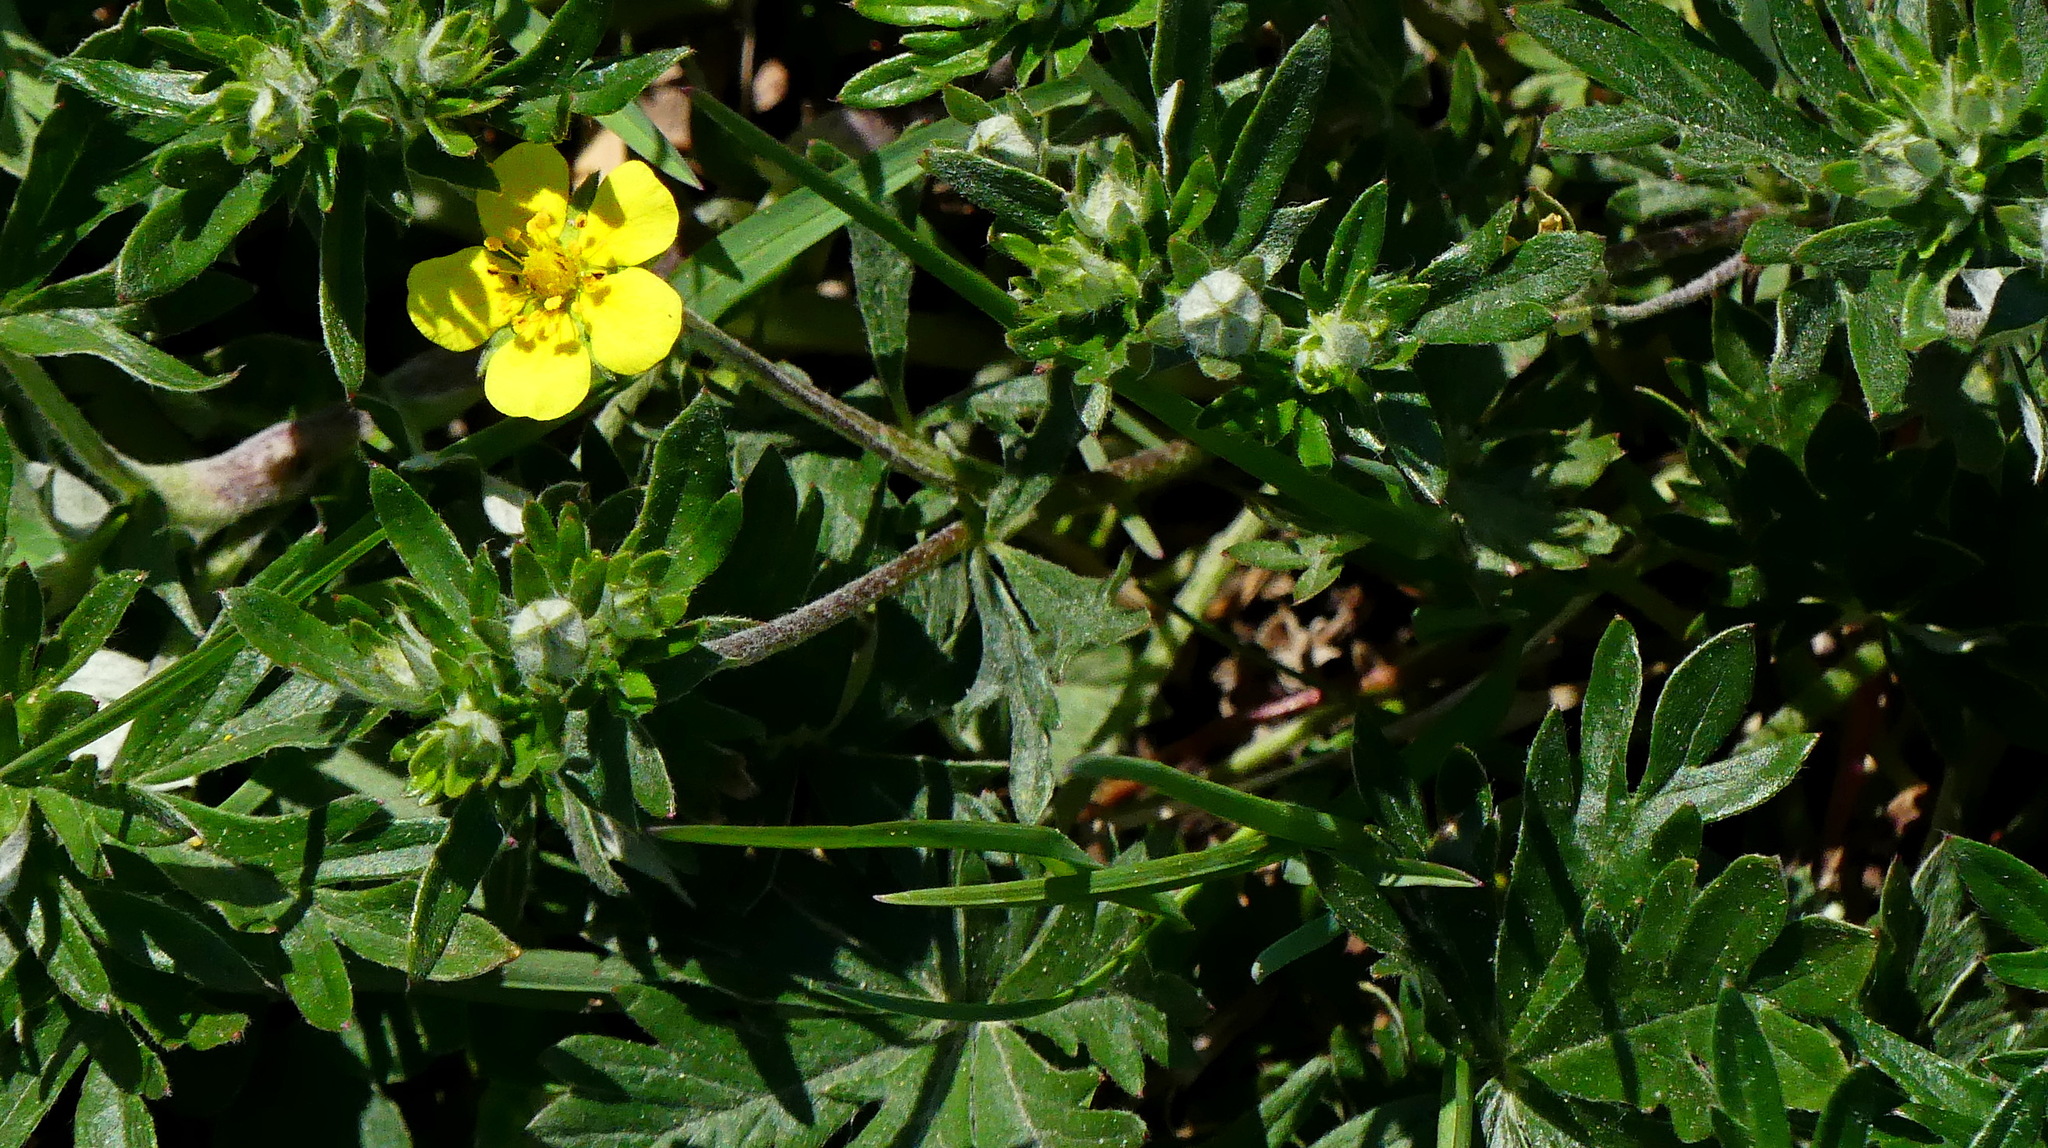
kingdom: Plantae
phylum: Tracheophyta
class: Magnoliopsida
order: Rosales
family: Rosaceae
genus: Potentilla
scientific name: Potentilla argentea
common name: Hoary cinquefoil
